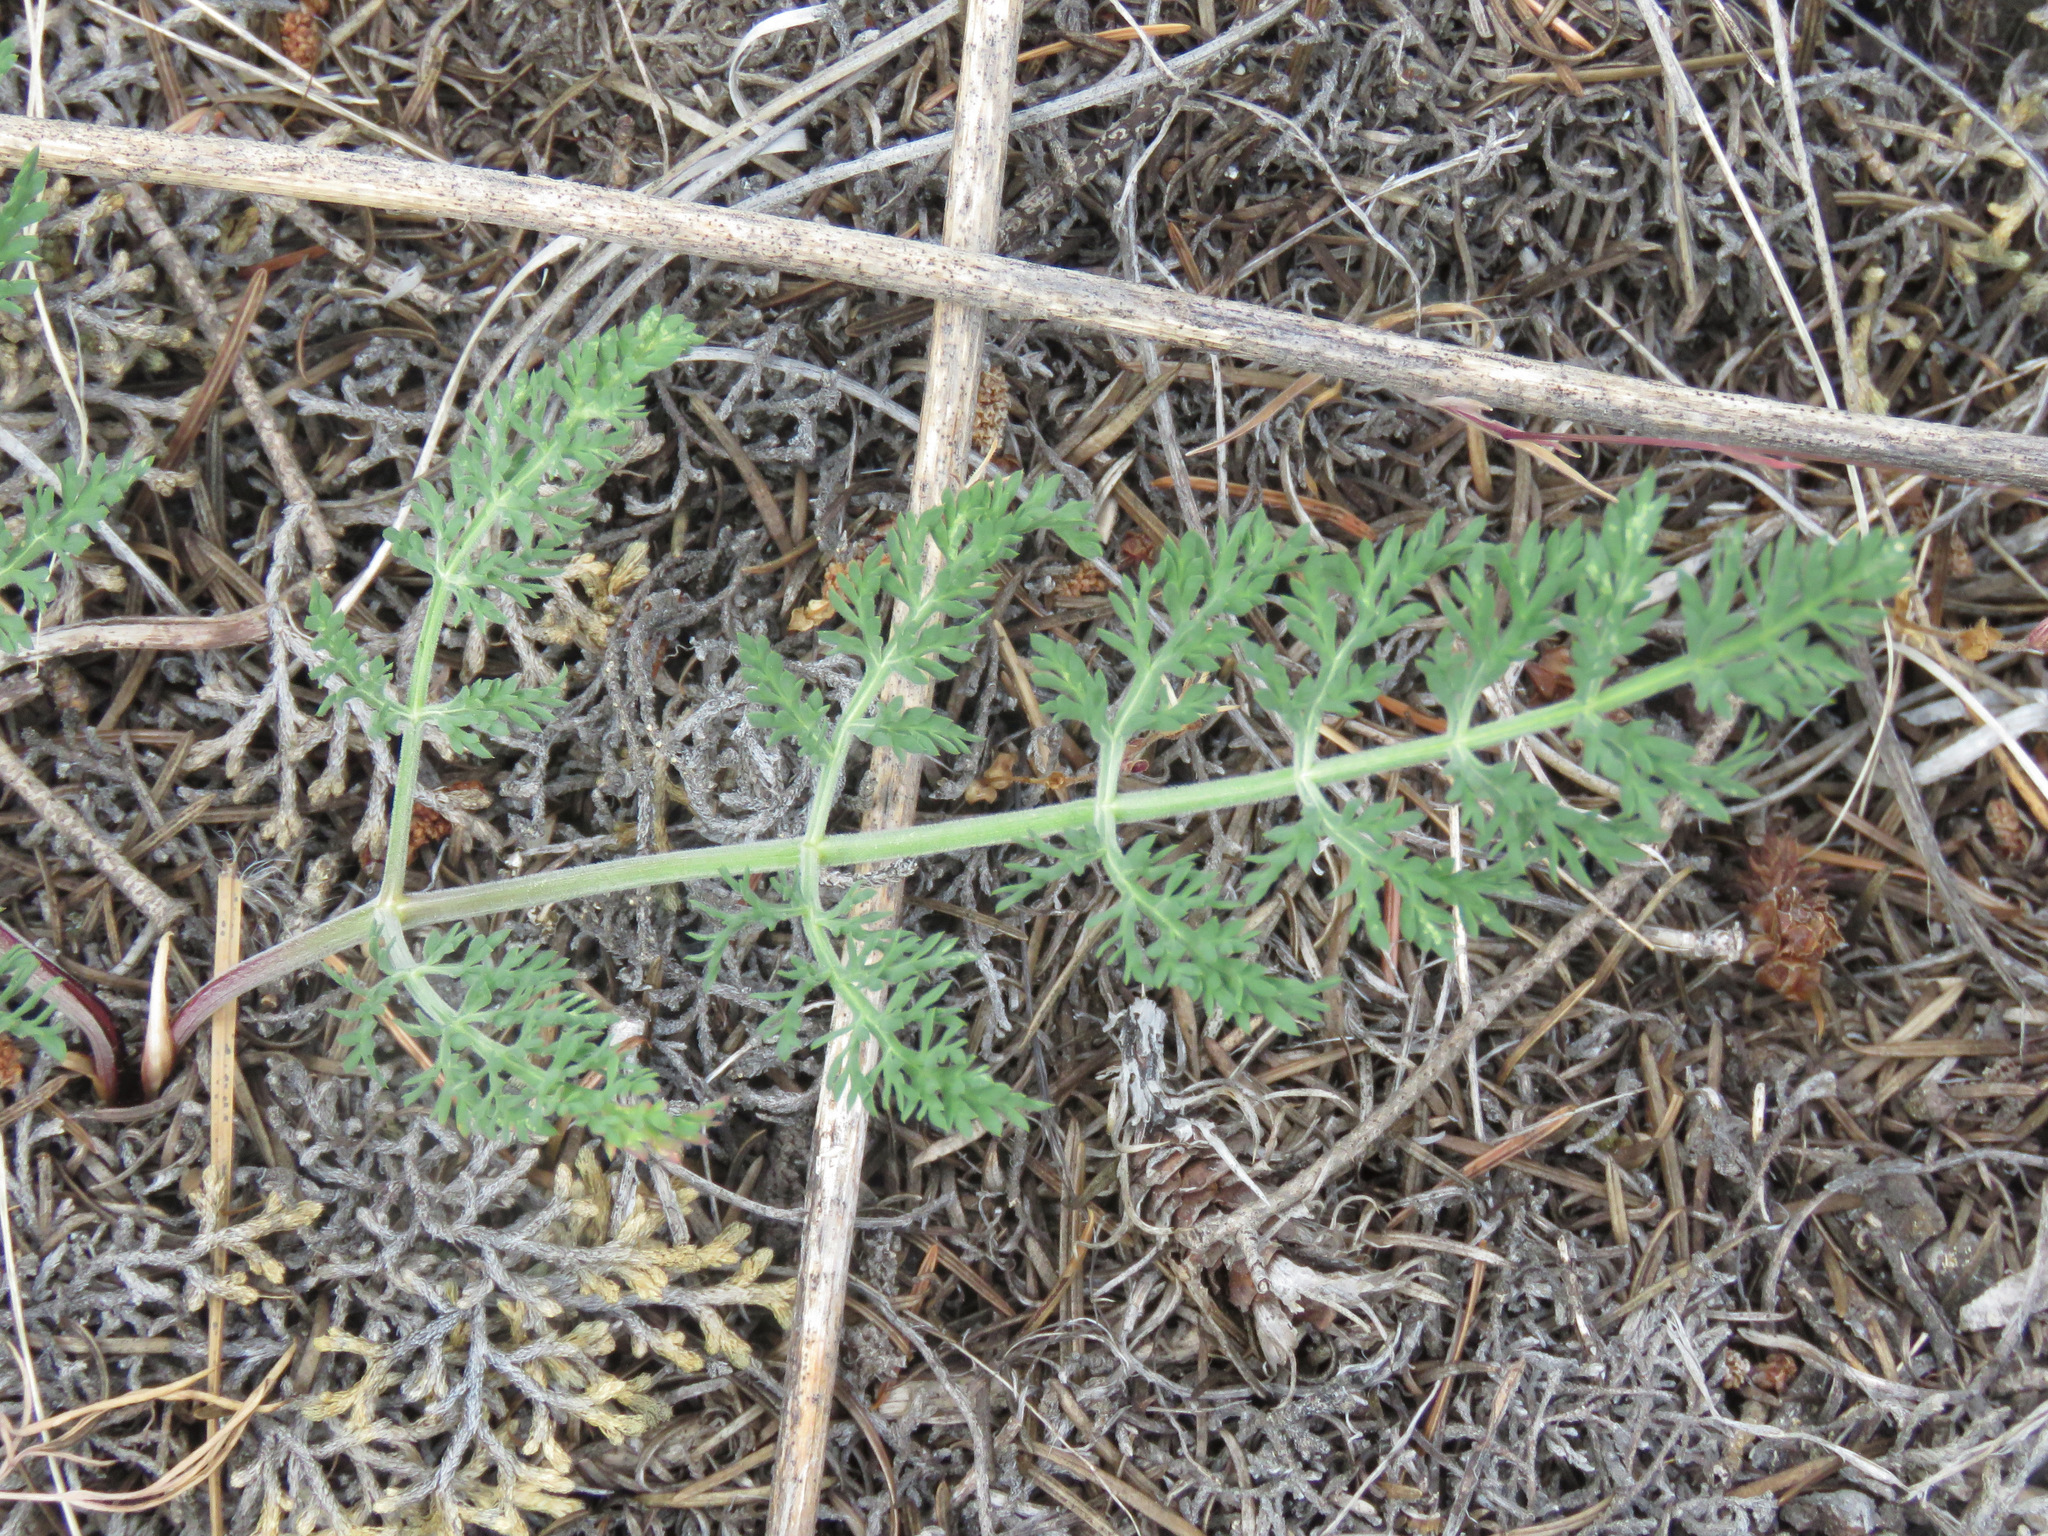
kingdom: Plantae
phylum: Tracheophyta
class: Magnoliopsida
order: Apiales
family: Apiaceae
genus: Lomatium
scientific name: Lomatium macrocarpum
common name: Big-seed biscuitroot
